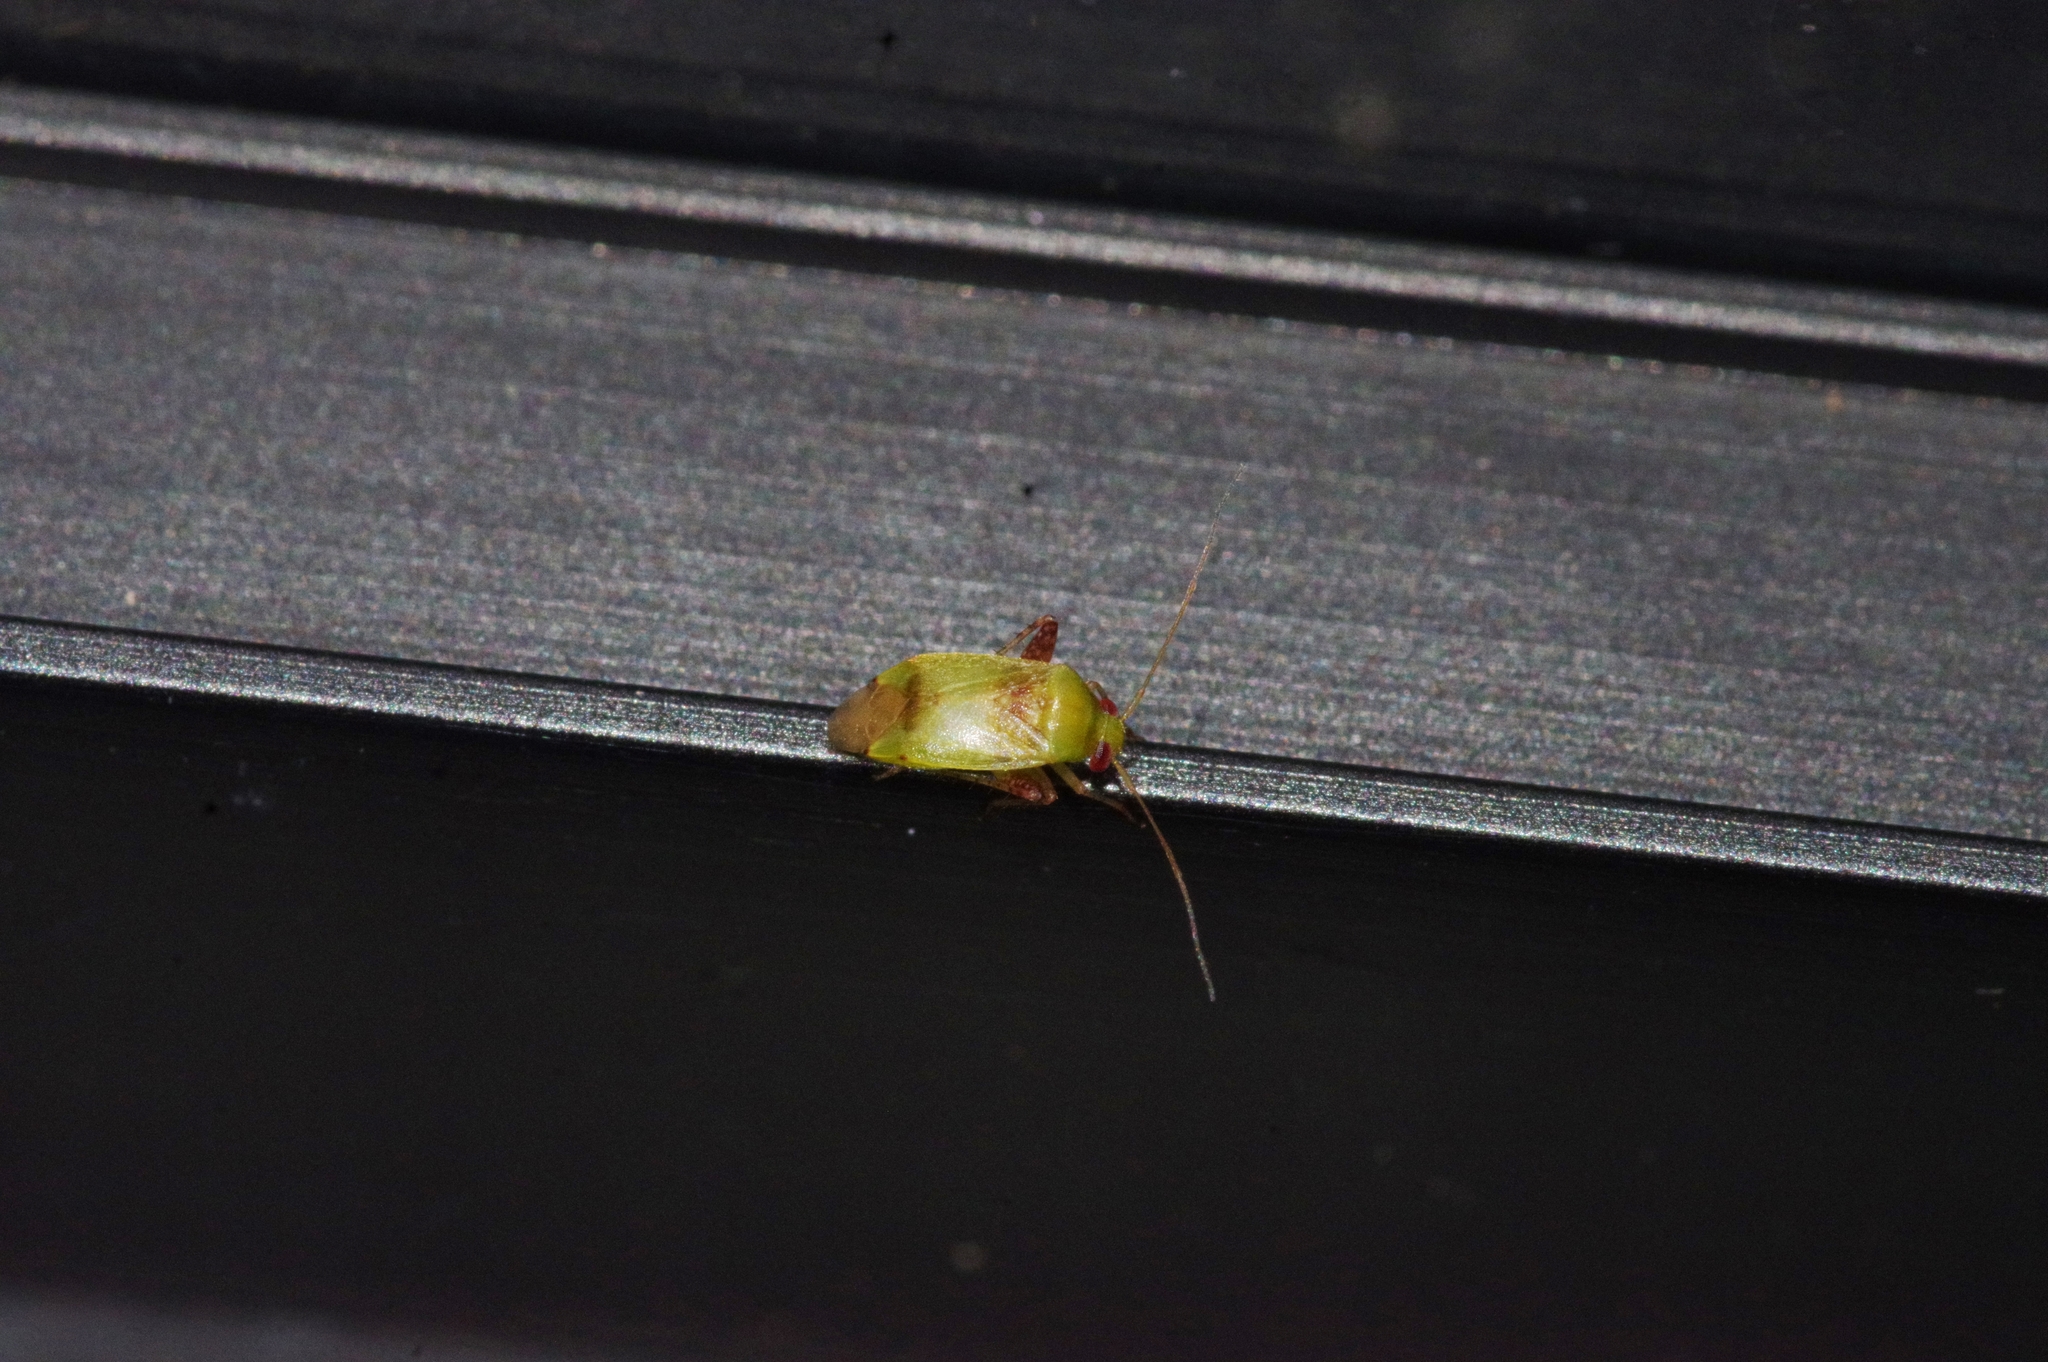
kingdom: Animalia
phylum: Arthropoda
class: Insecta
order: Hemiptera
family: Miridae
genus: Anthophilolygus
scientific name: Anthophilolygus bakeri
